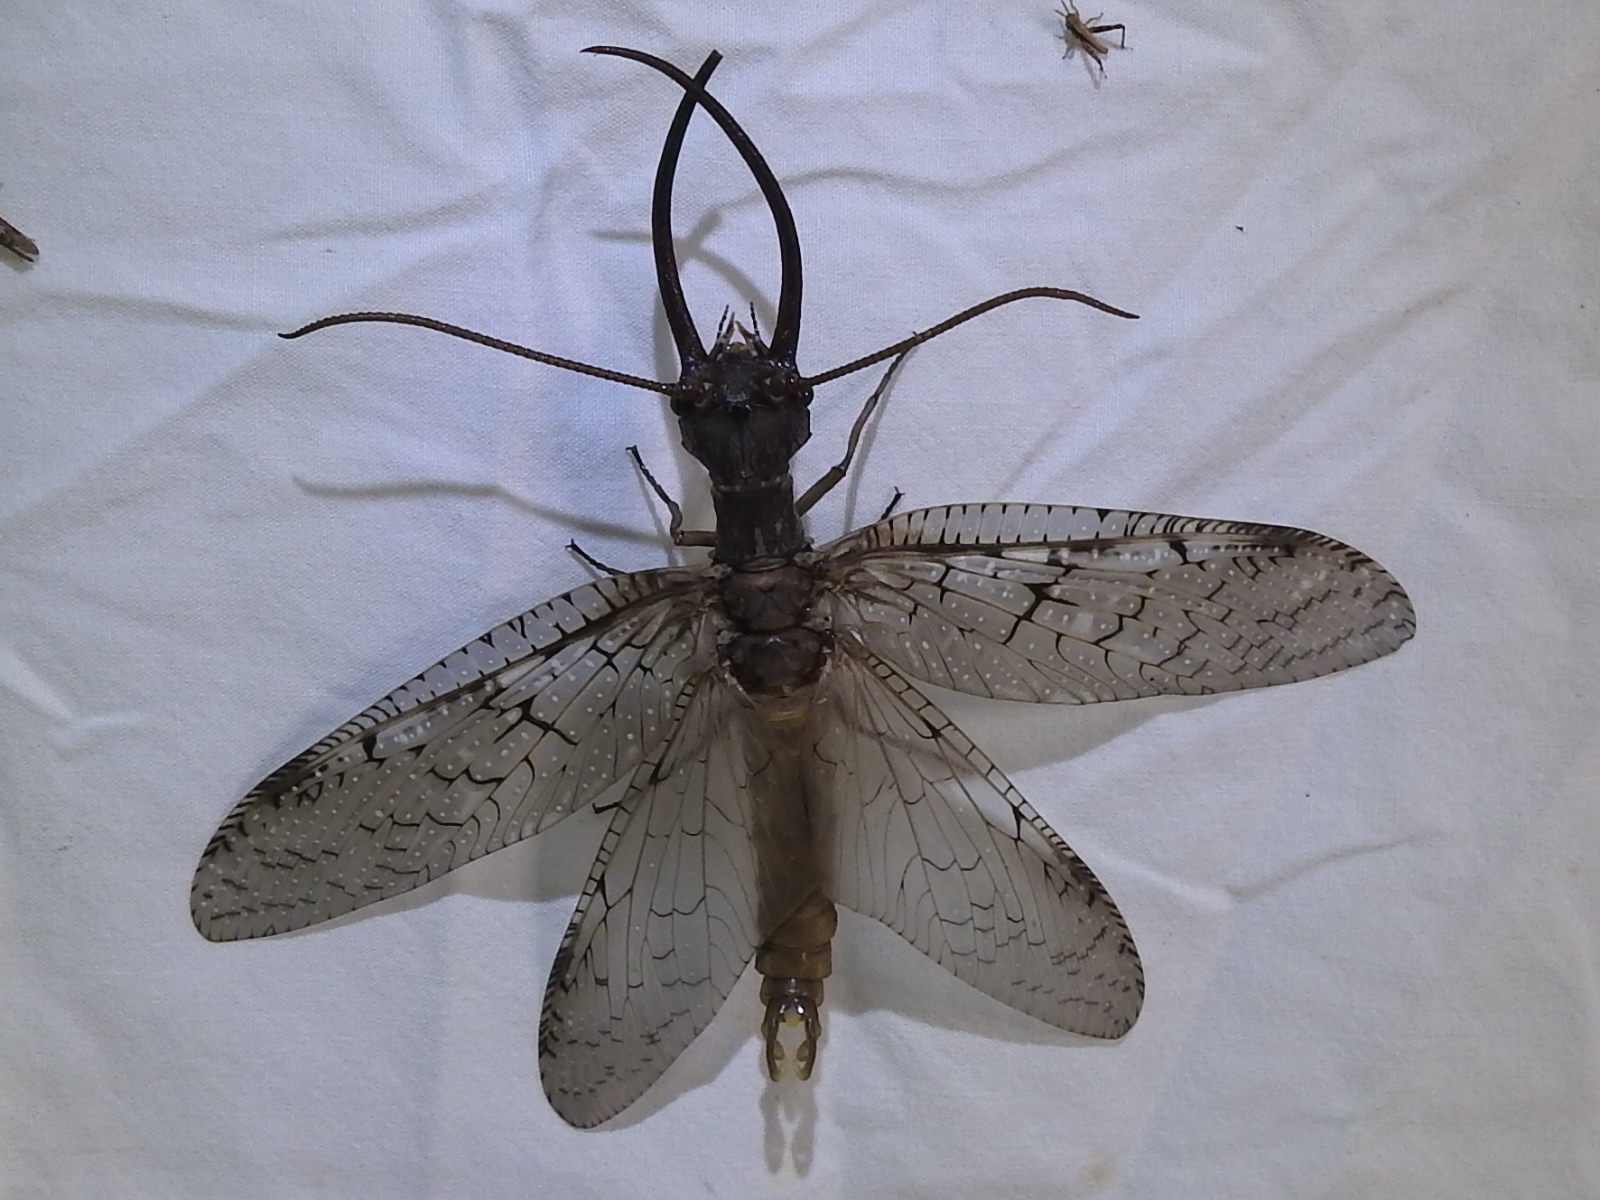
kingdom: Animalia
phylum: Arthropoda
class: Insecta
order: Megaloptera
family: Corydalidae
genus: Corydalus
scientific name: Corydalus cornutus
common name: Dobsonfly
